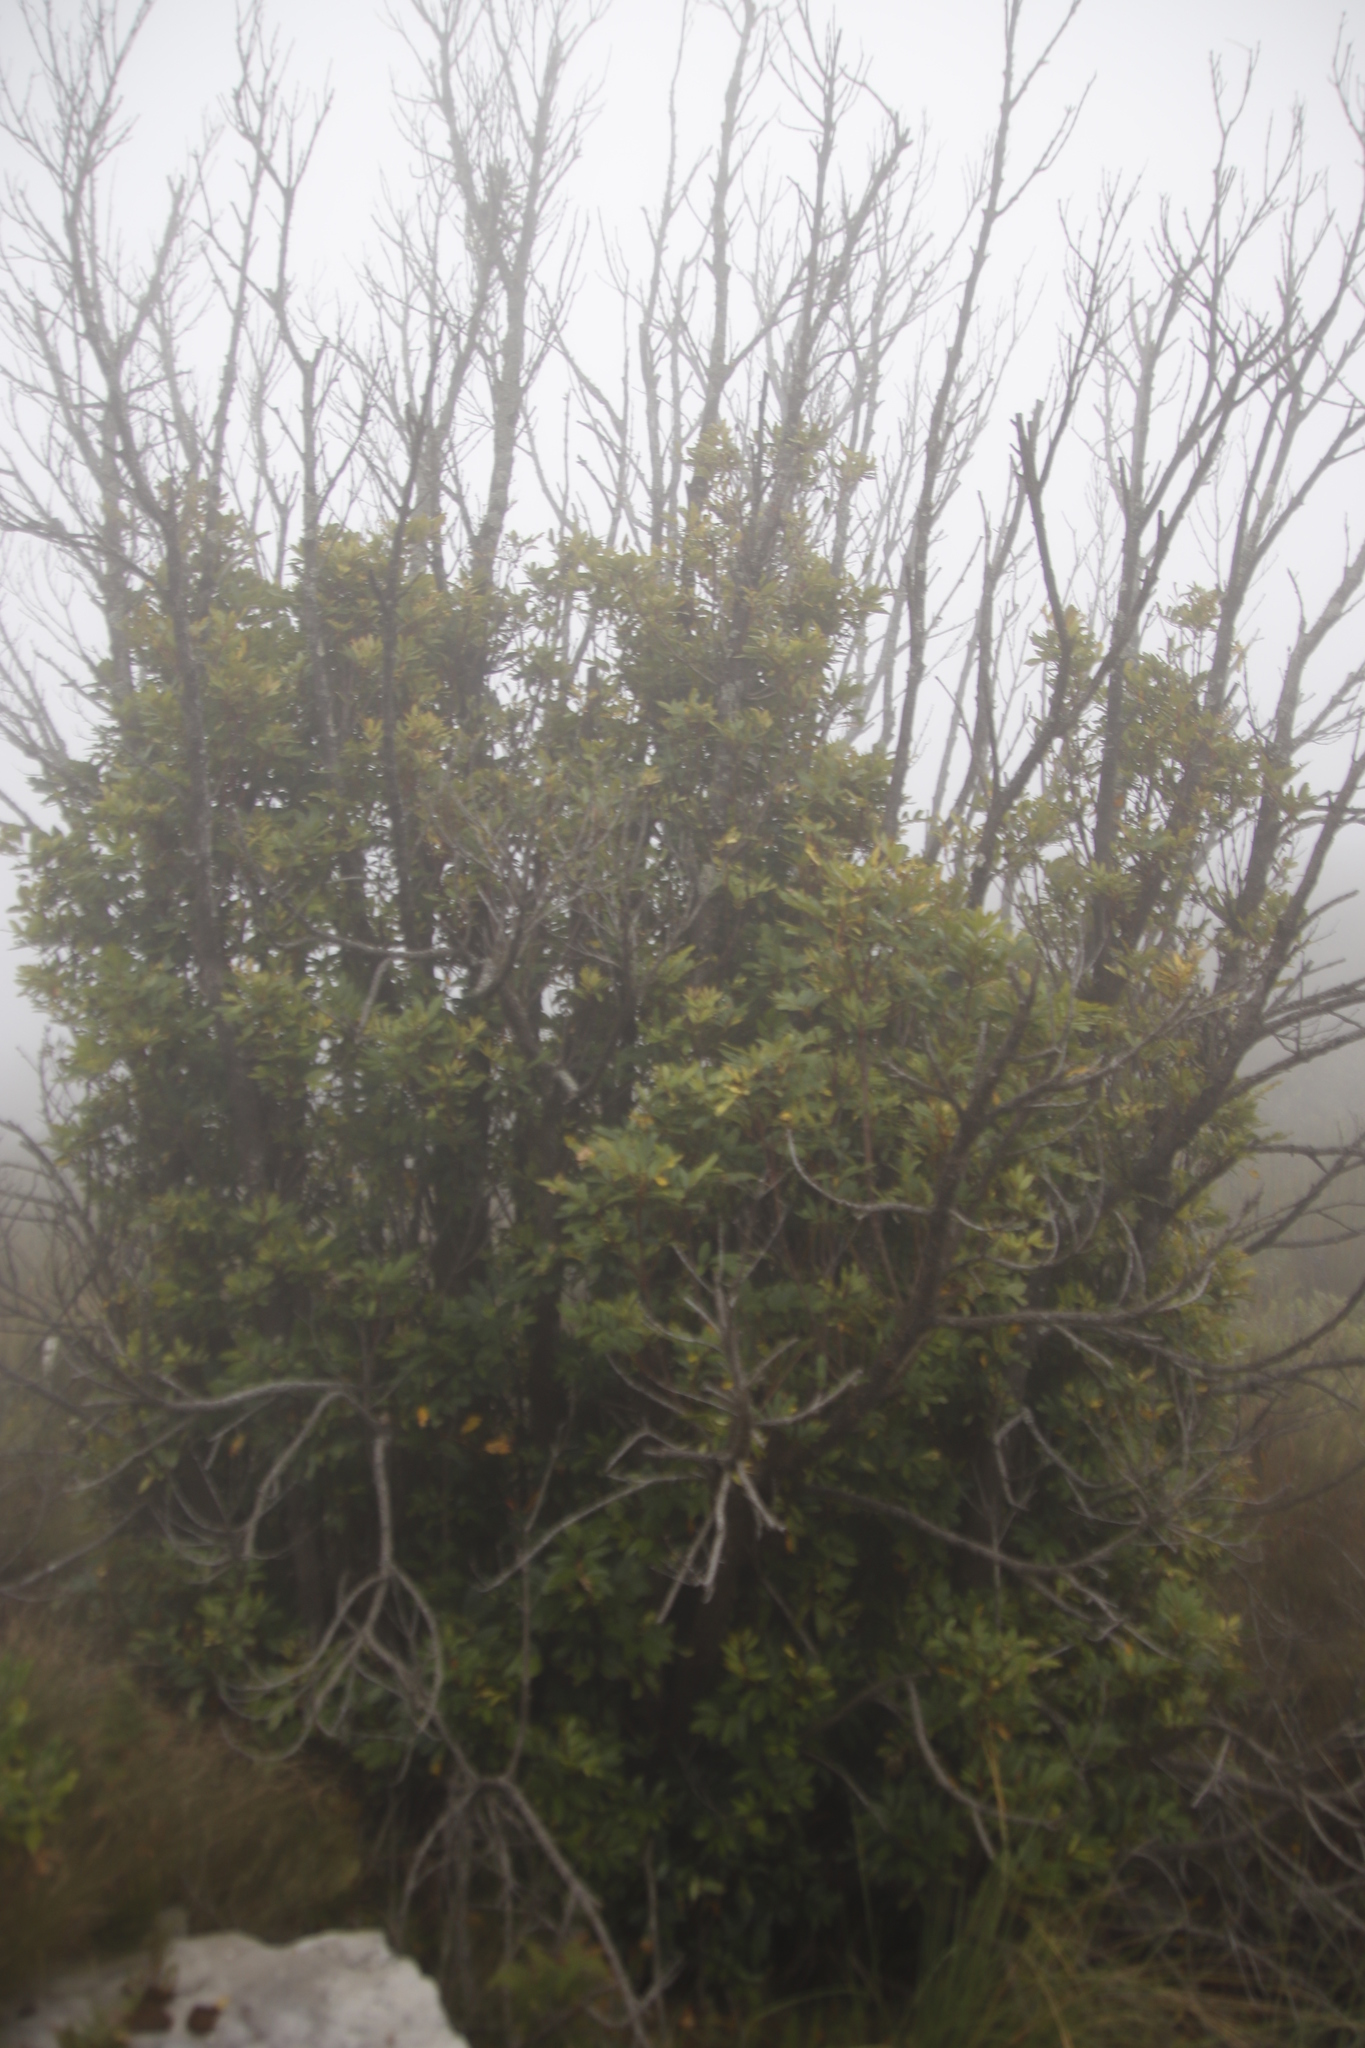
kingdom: Plantae
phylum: Tracheophyta
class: Magnoliopsida
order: Oxalidales
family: Cunoniaceae
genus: Cunonia
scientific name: Cunonia capensis
